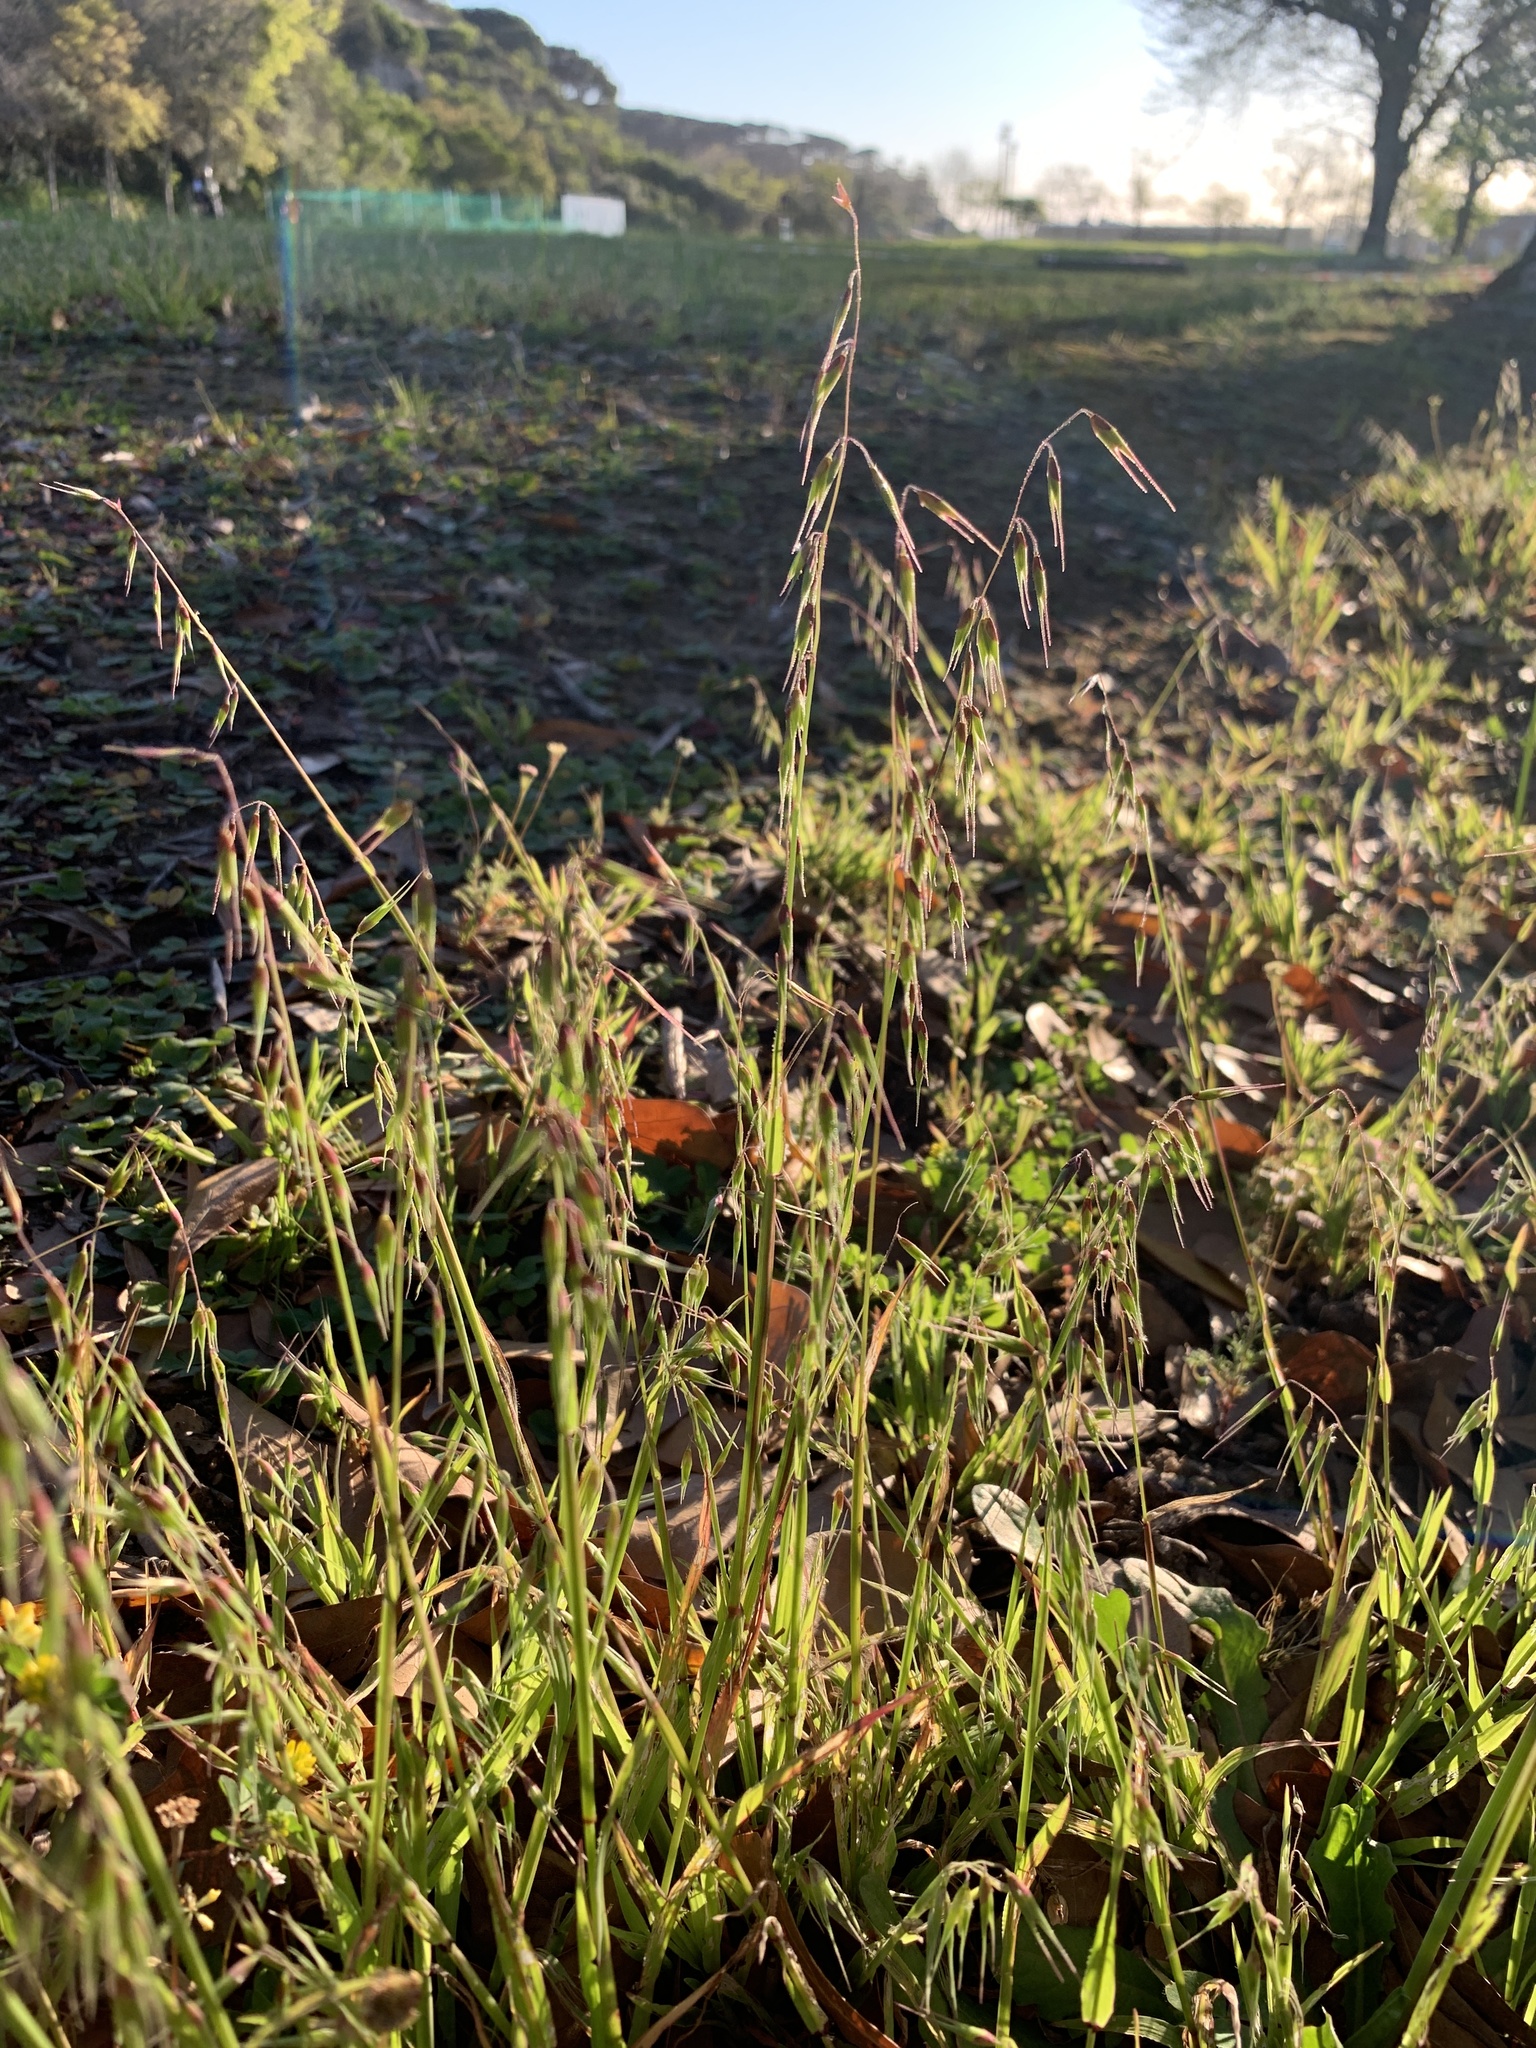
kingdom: Plantae
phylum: Tracheophyta
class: Liliopsida
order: Poales
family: Poaceae
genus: Ehrharta
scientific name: Ehrharta longiflora
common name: Longflowered veldtgrass
